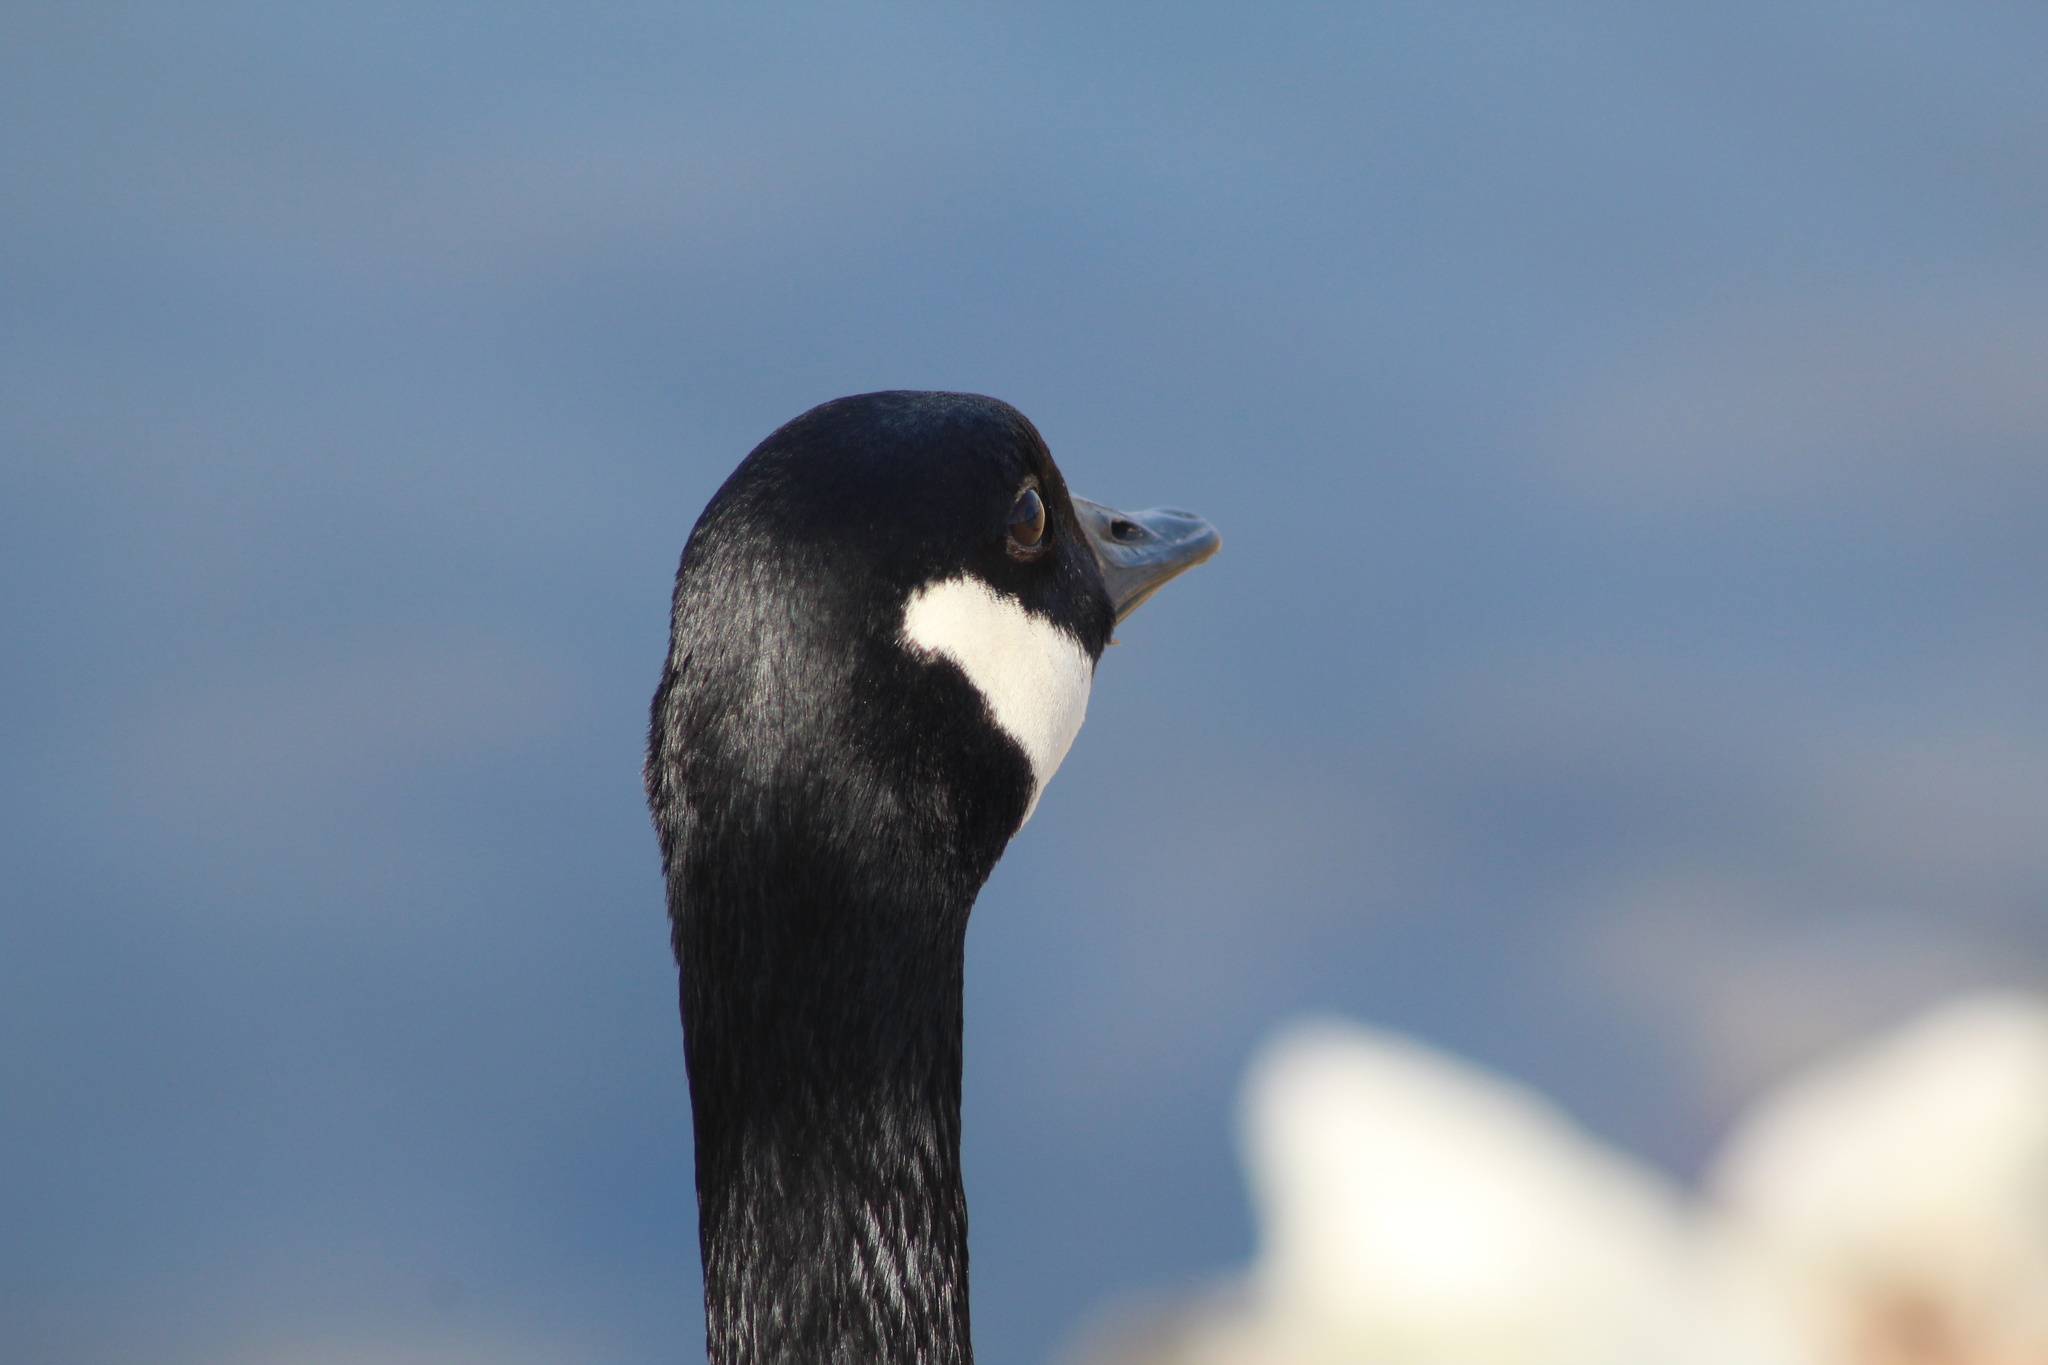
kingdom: Animalia
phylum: Chordata
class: Aves
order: Anseriformes
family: Anatidae
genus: Branta
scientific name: Branta canadensis
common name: Canada goose
